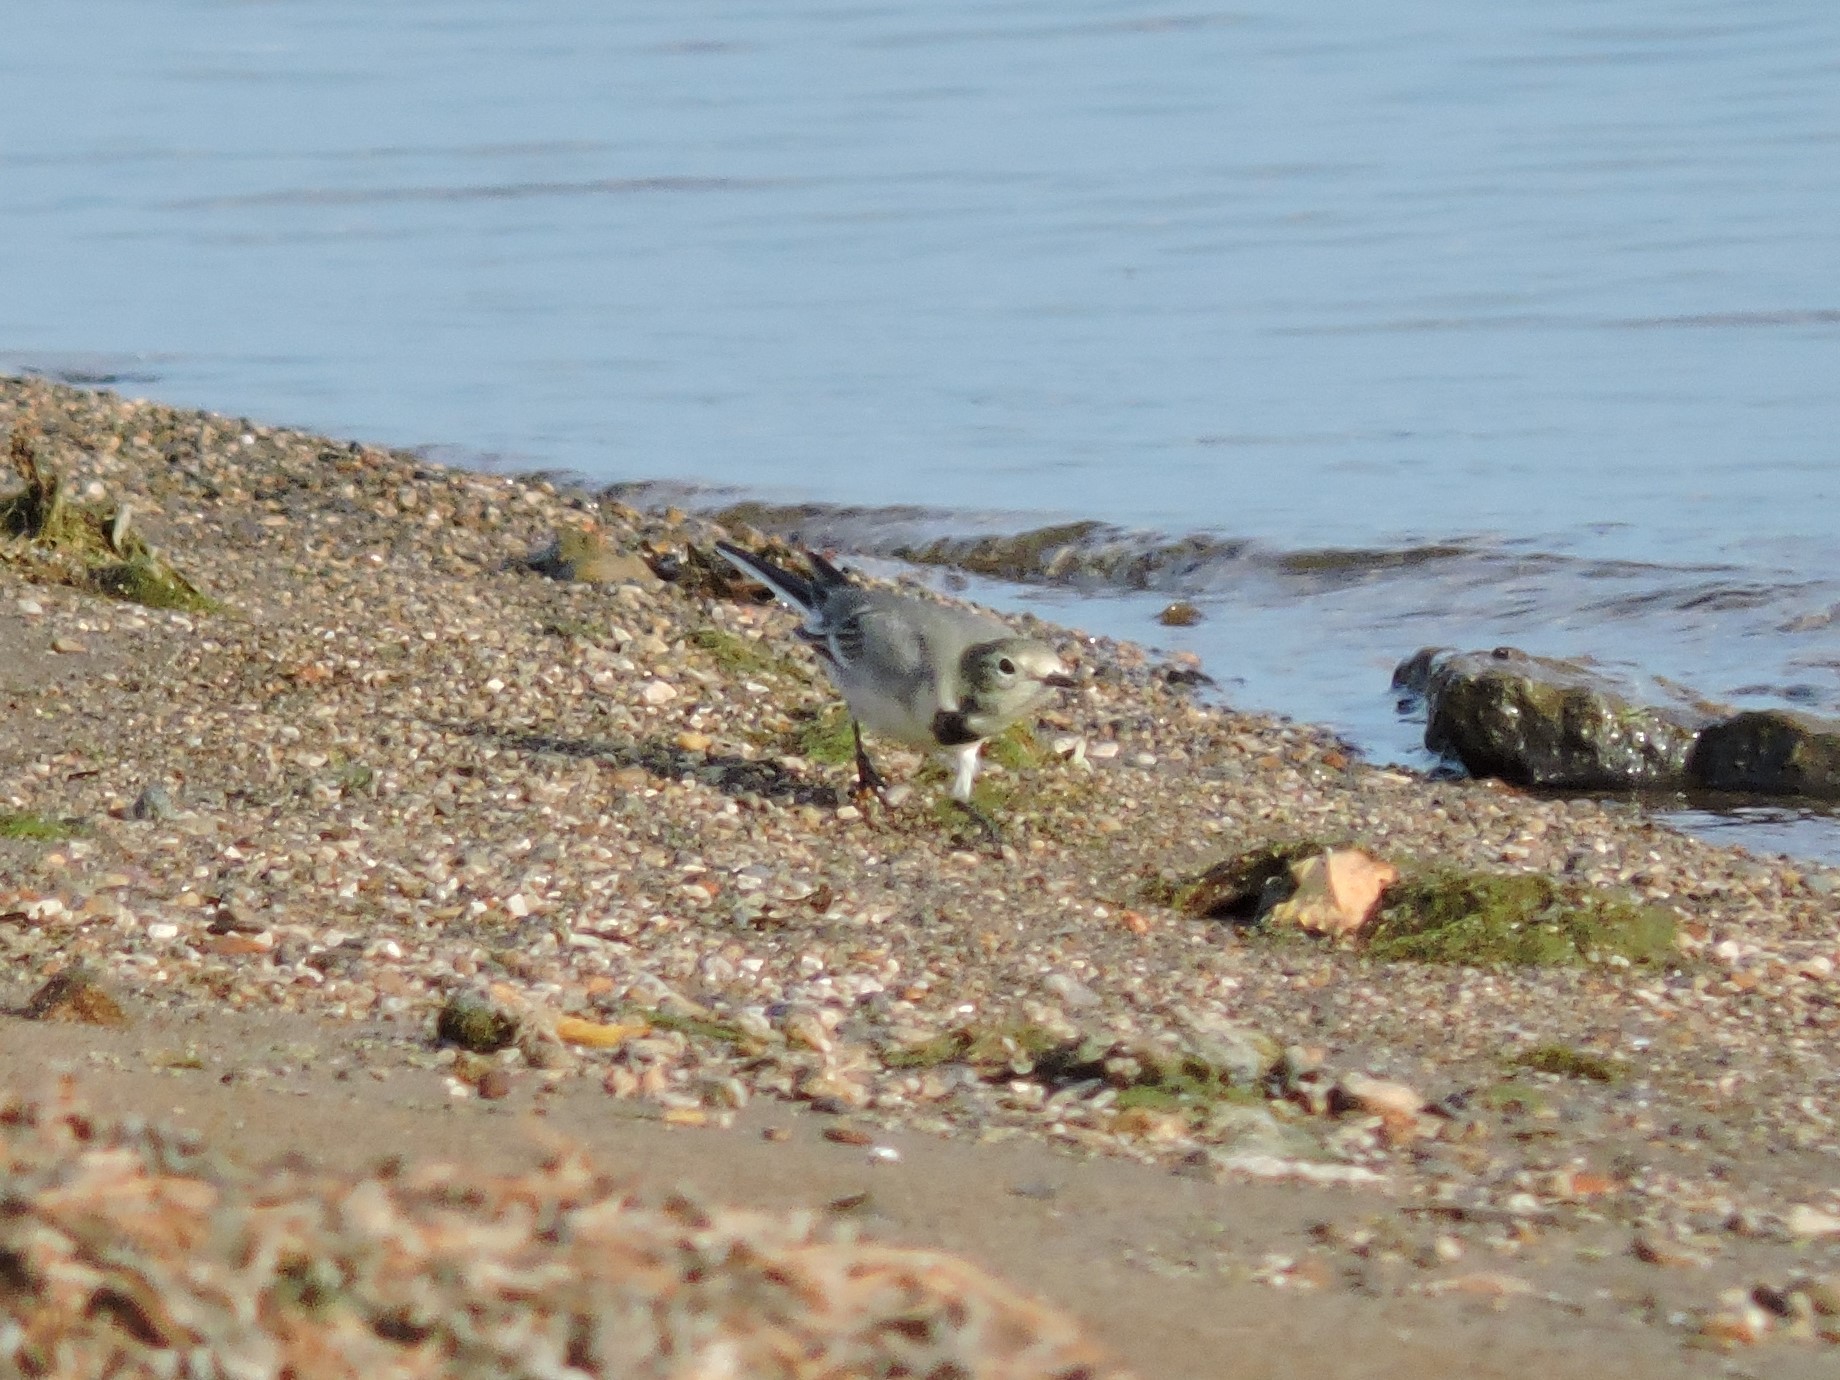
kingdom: Animalia
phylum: Chordata
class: Aves
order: Passeriformes
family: Motacillidae
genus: Motacilla
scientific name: Motacilla alba
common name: White wagtail
